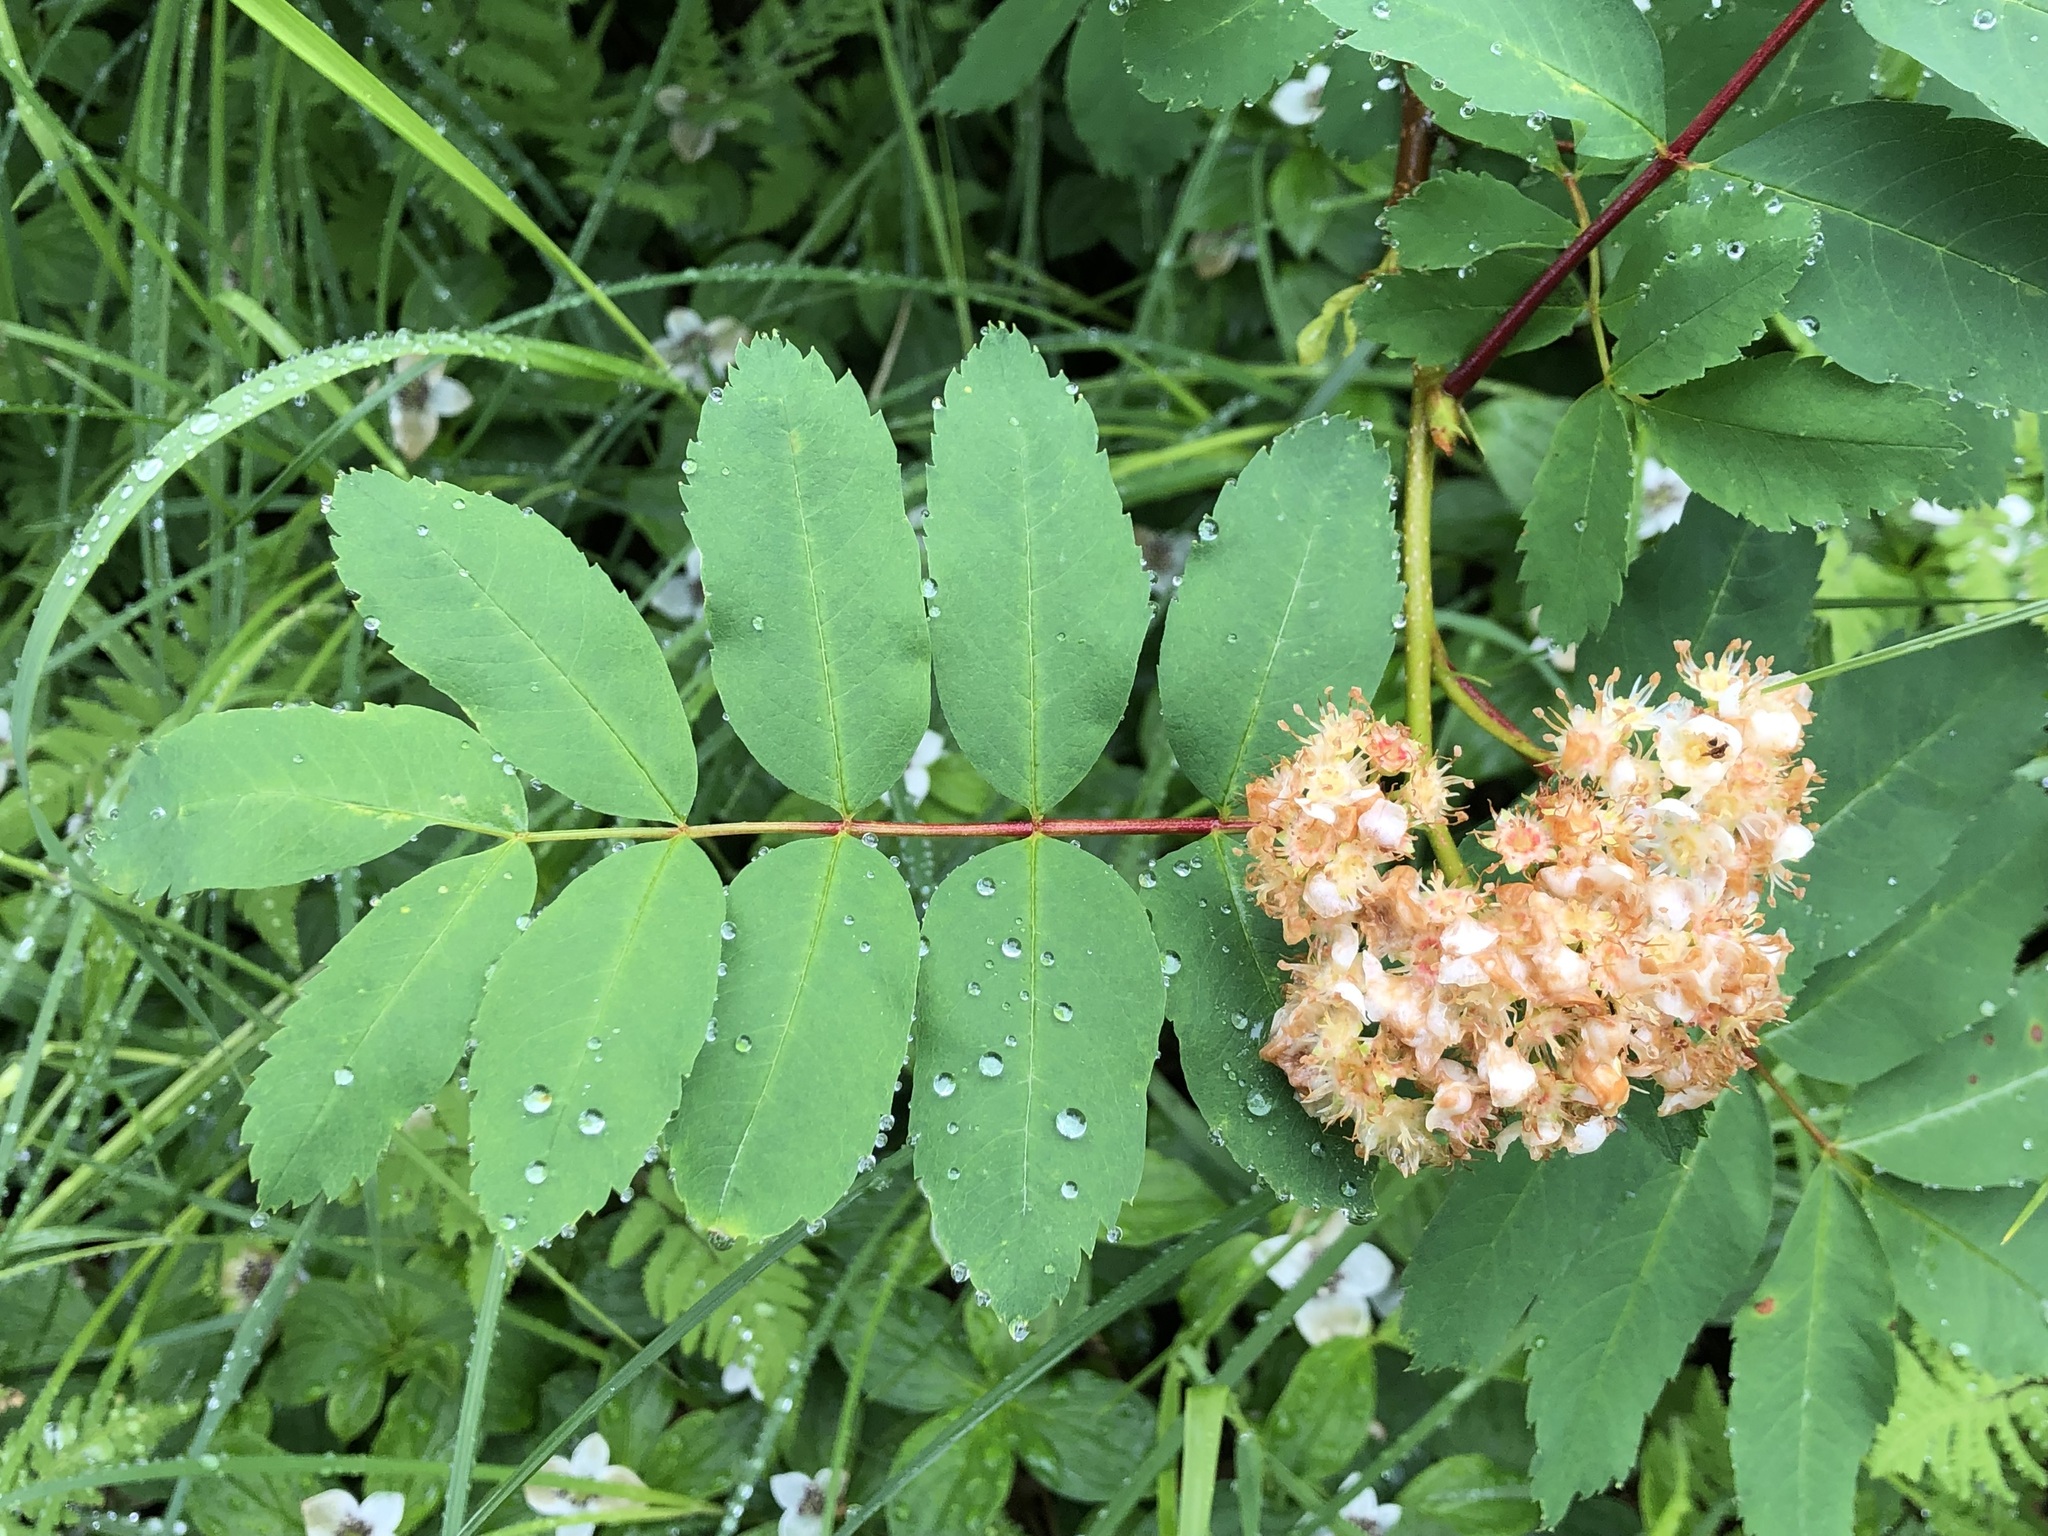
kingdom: Plantae
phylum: Tracheophyta
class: Magnoliopsida
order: Rosales
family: Rosaceae
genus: Sorbus
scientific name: Sorbus sitchensis
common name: Sitka mountain-ash
